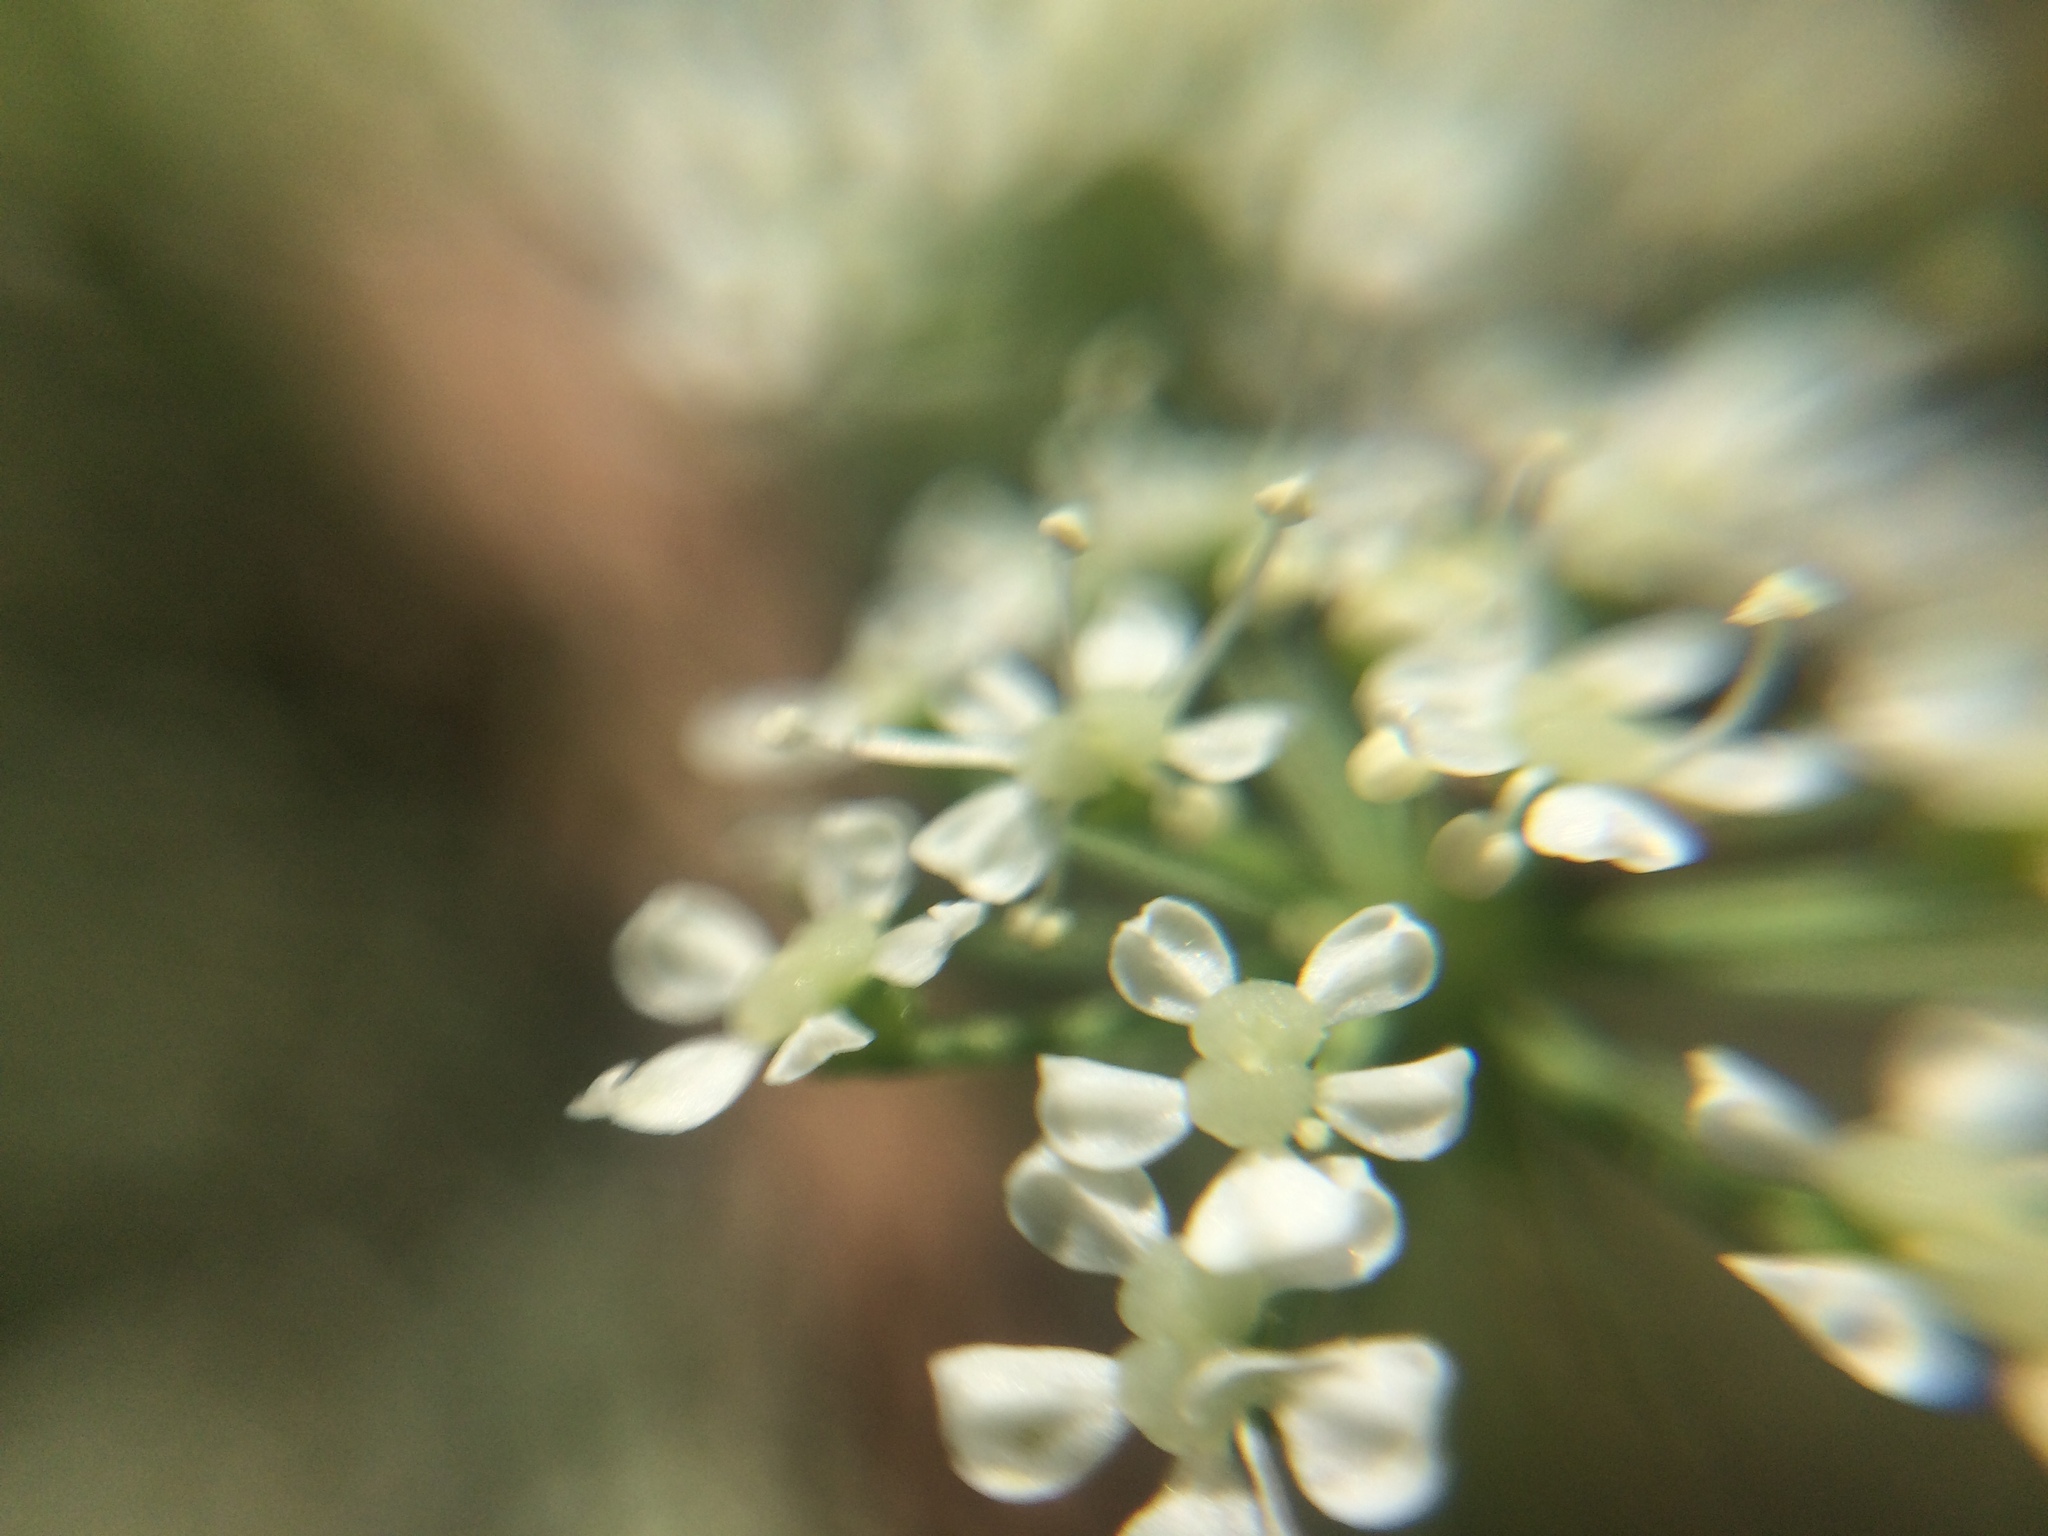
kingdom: Plantae
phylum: Tracheophyta
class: Magnoliopsida
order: Apiales
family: Apiaceae
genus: Conium
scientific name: Conium maculatum
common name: Hemlock
